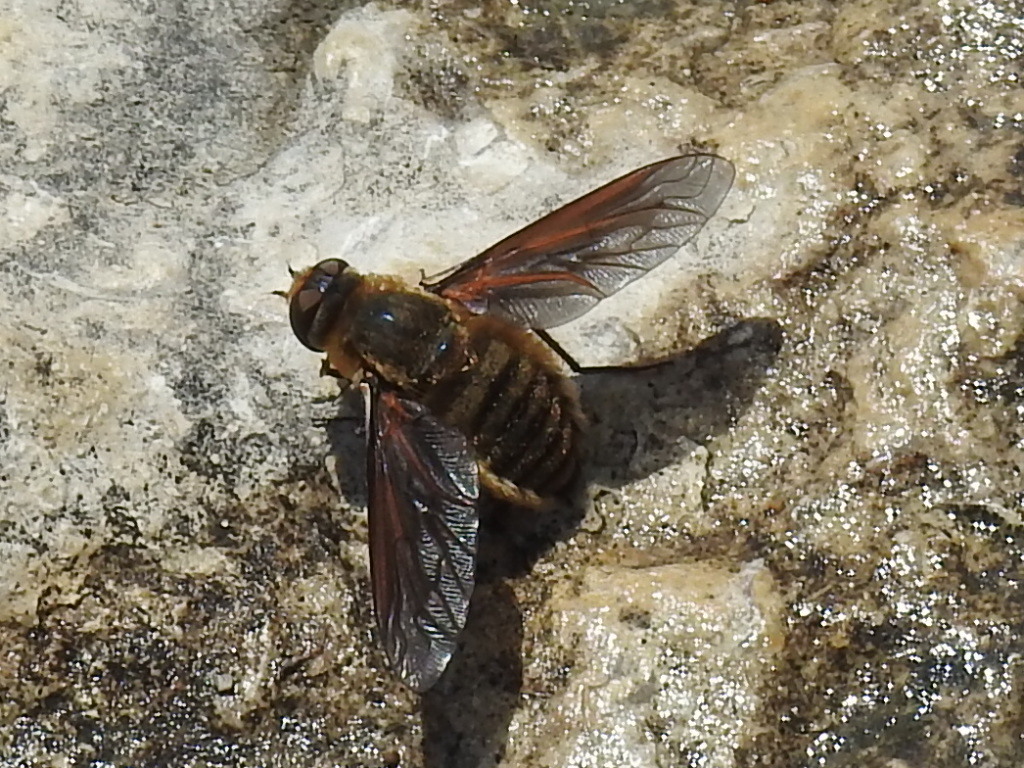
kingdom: Animalia
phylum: Arthropoda
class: Insecta
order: Diptera
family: Bombyliidae
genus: Poecilanthrax
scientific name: Poecilanthrax lucifer
